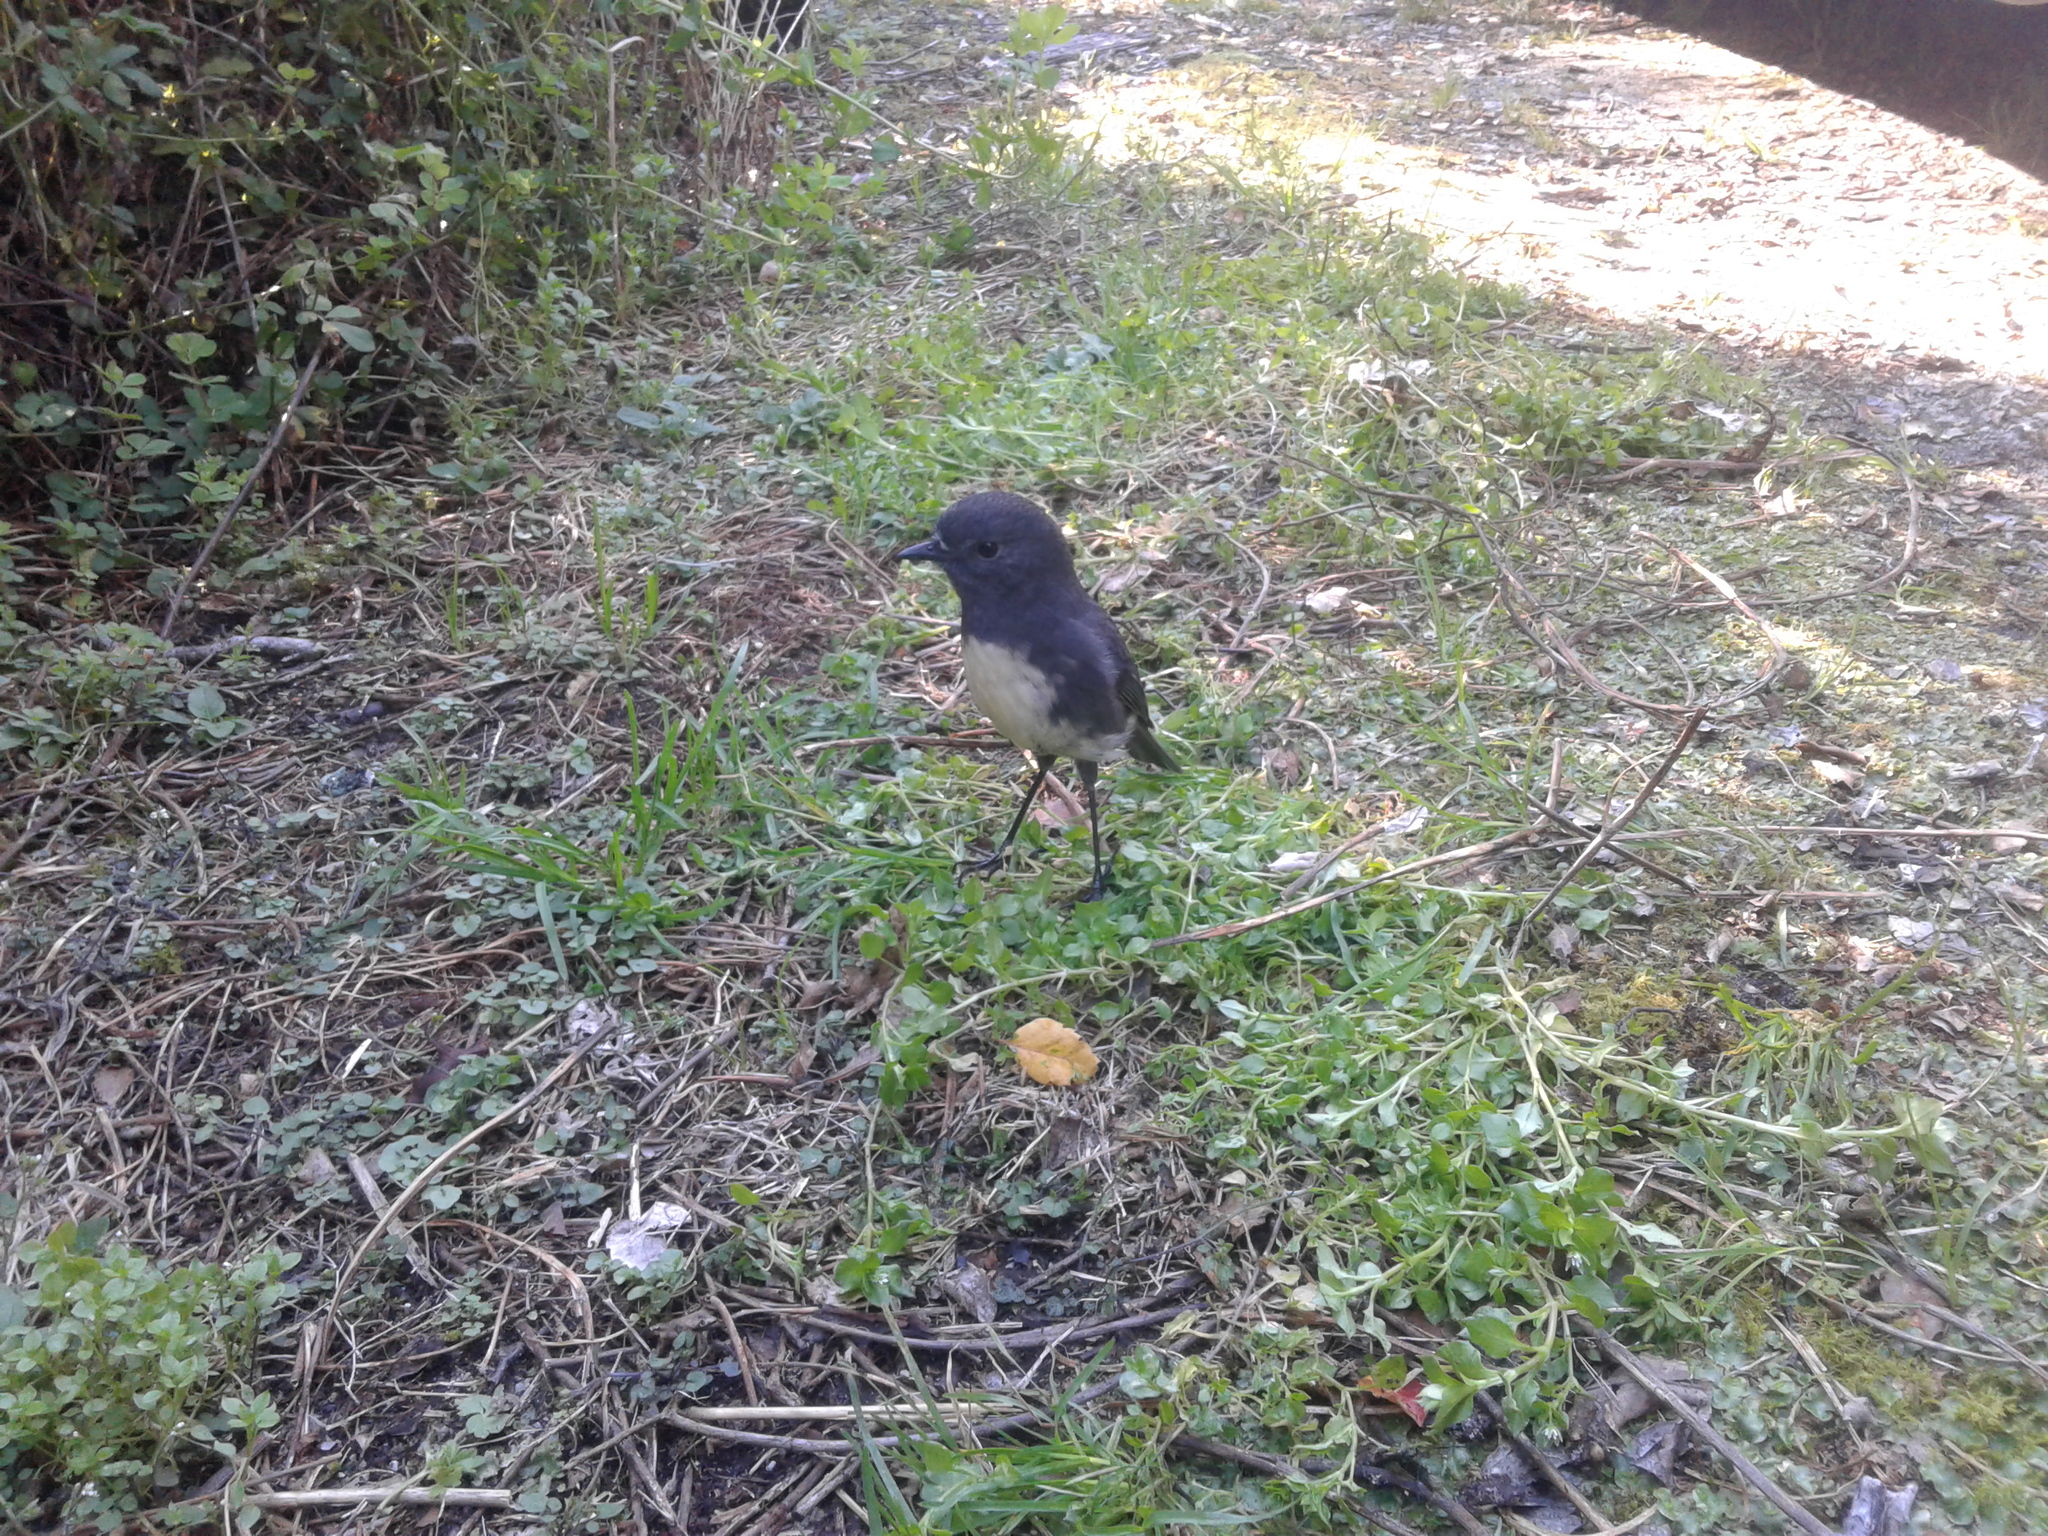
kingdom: Animalia
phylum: Chordata
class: Aves
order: Passeriformes
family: Petroicidae
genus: Petroica
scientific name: Petroica australis
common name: New zealand robin
